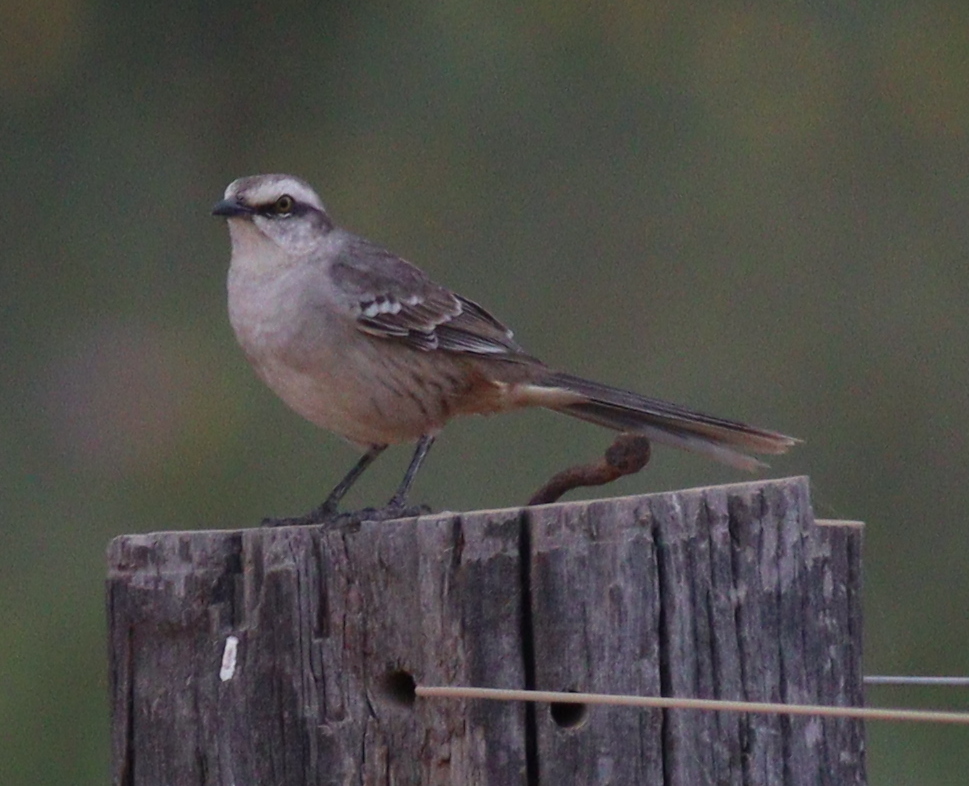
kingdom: Animalia
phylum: Chordata
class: Aves
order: Passeriformes
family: Mimidae
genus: Mimus
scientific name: Mimus saturninus
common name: Chalk-browed mockingbird
